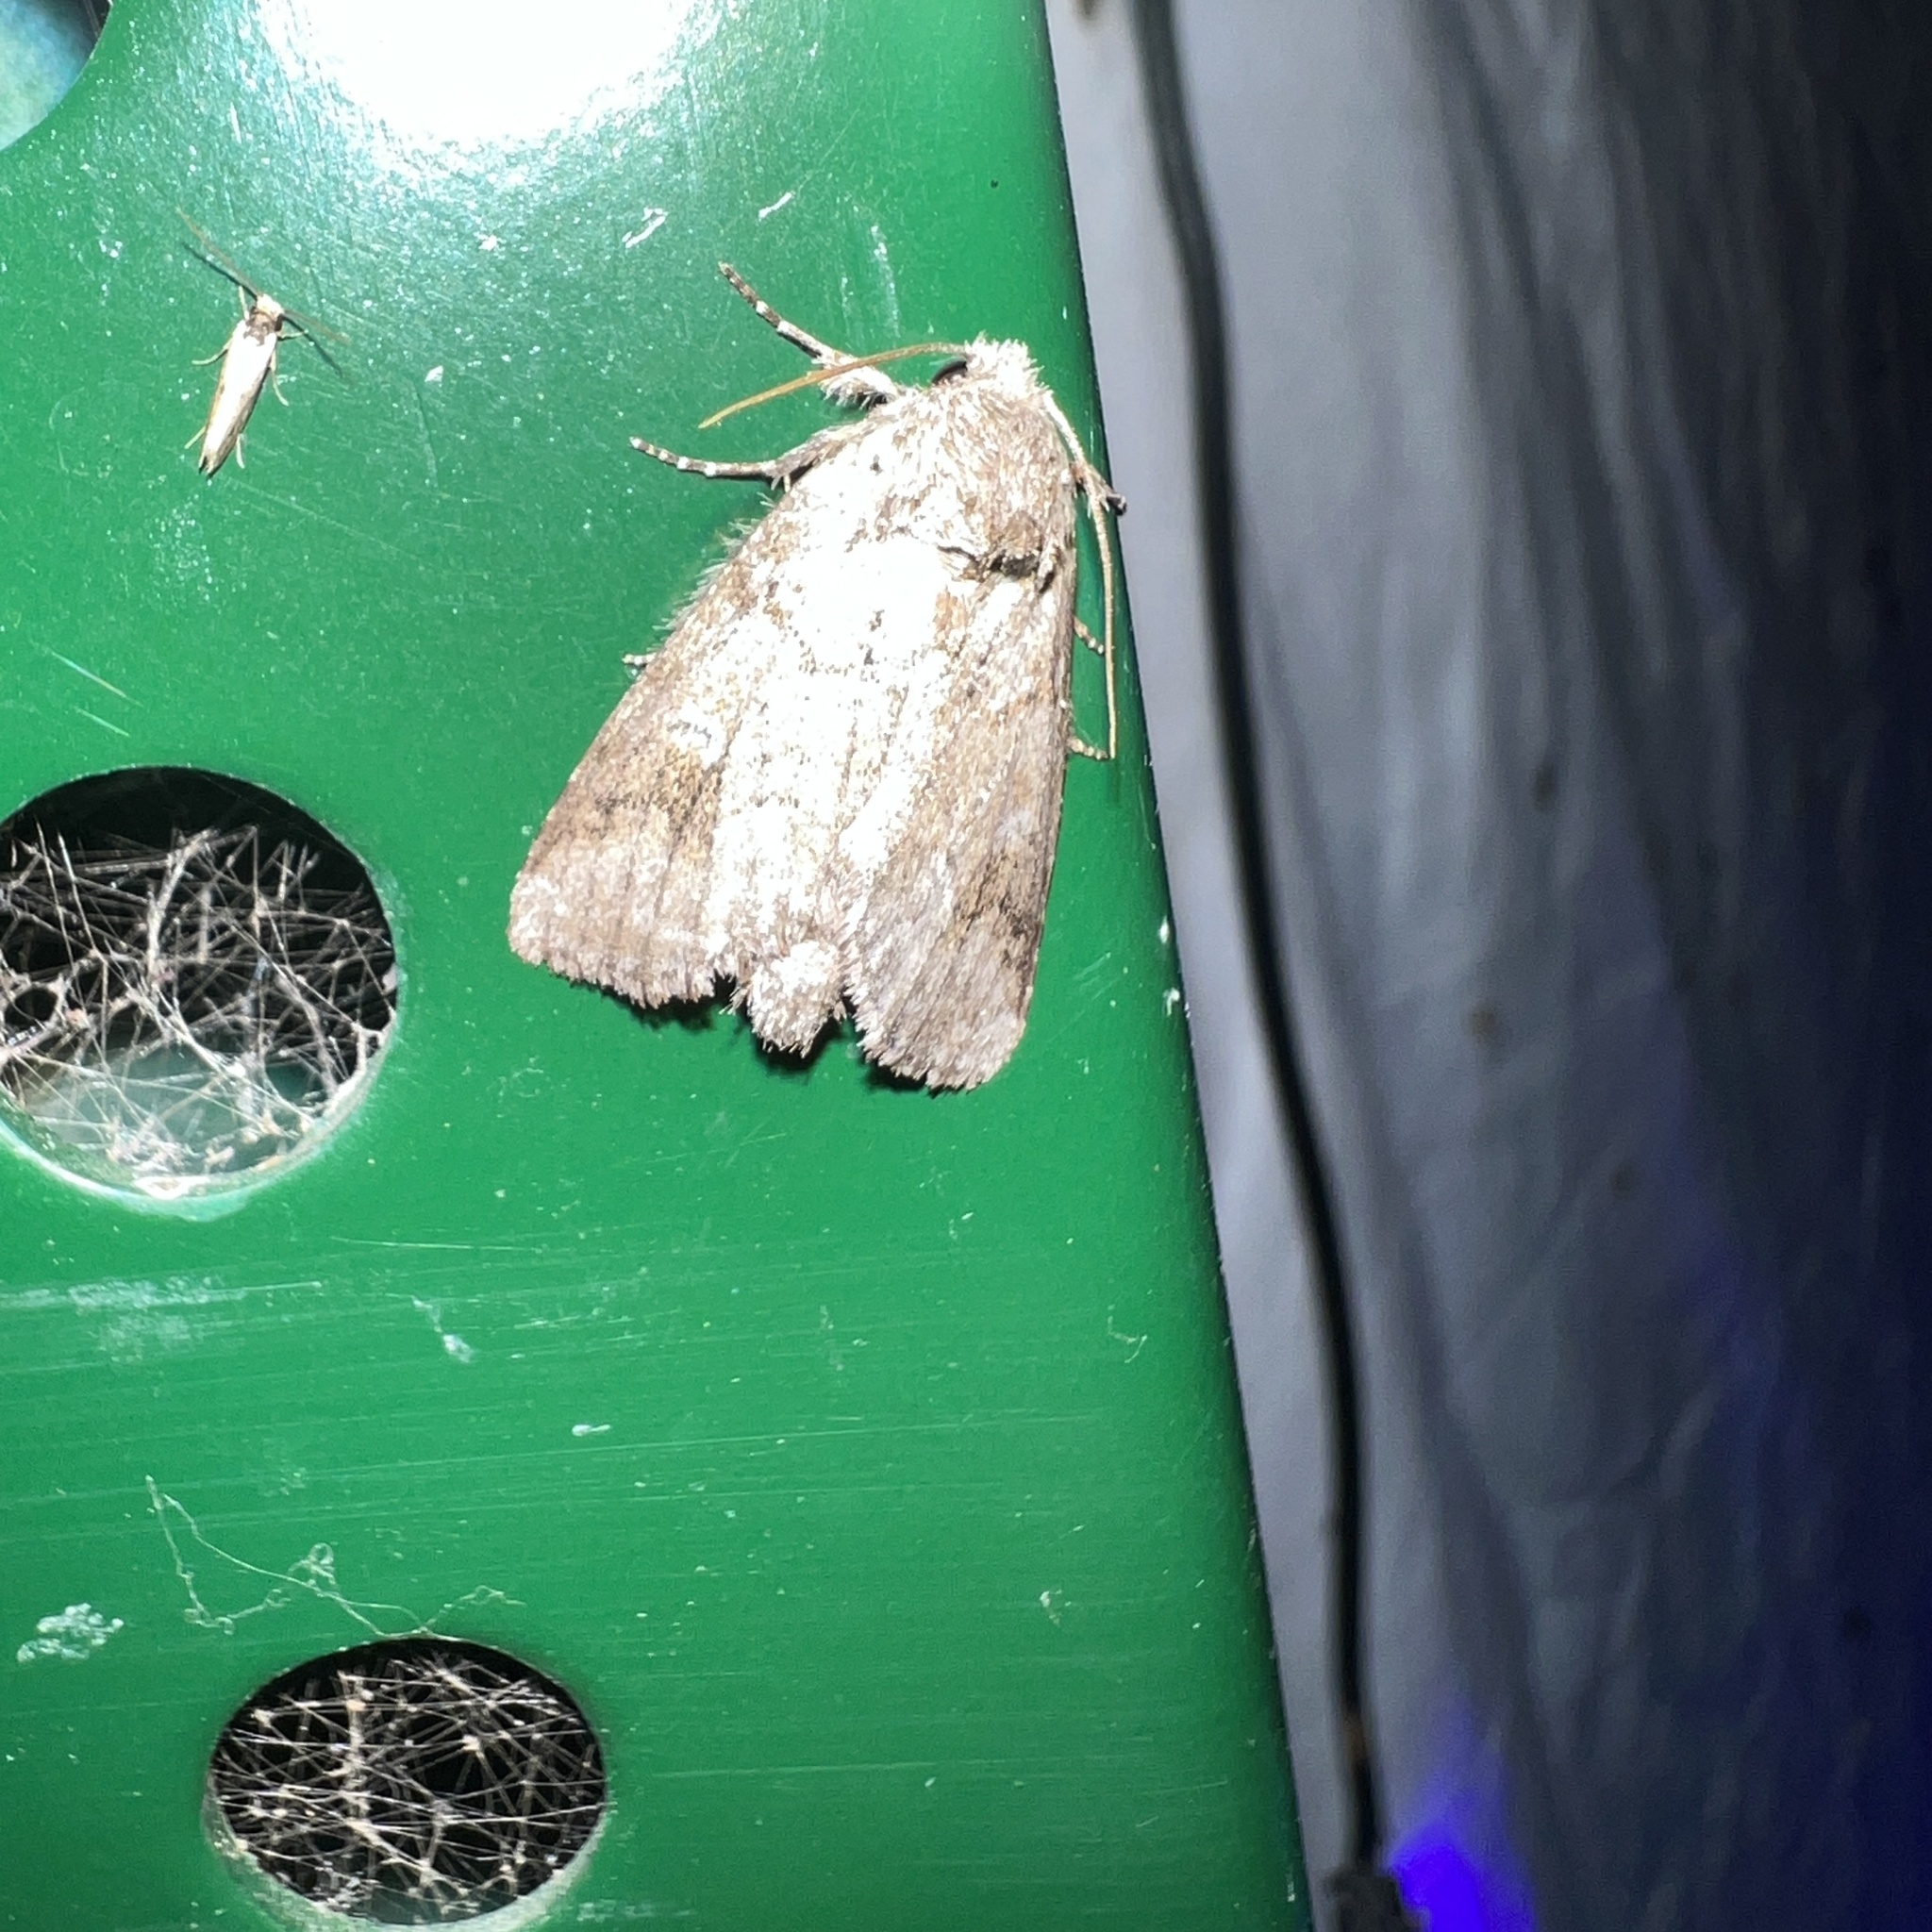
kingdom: Animalia
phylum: Arthropoda
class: Insecta
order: Lepidoptera
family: Notodontidae
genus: Lochmaeus
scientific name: Lochmaeus bilineata
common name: Double-lined prominent
